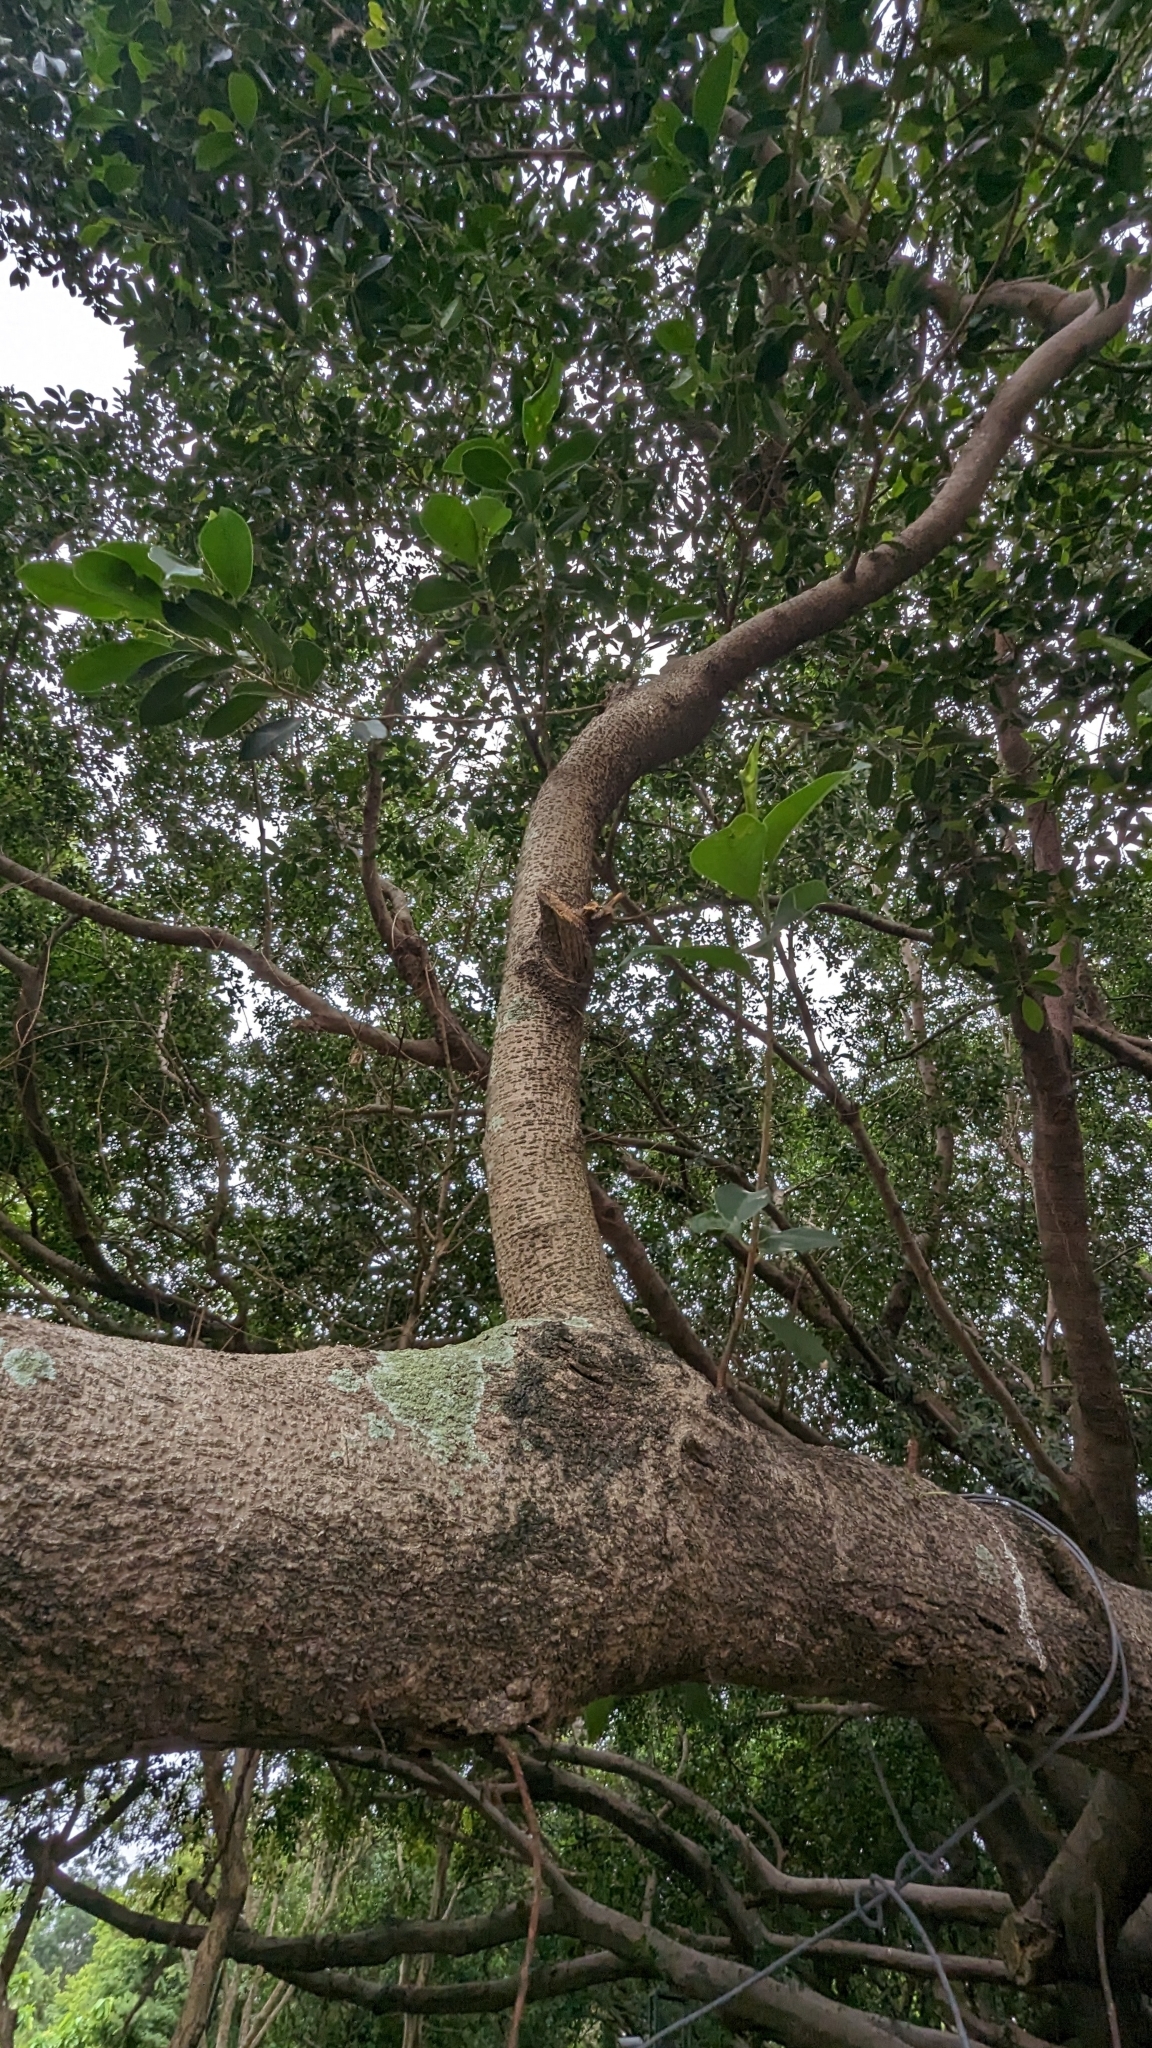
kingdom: Plantae
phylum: Tracheophyta
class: Magnoliopsida
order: Rosales
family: Moraceae
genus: Ficus
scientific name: Ficus microcarpa
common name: Chinese banyan
